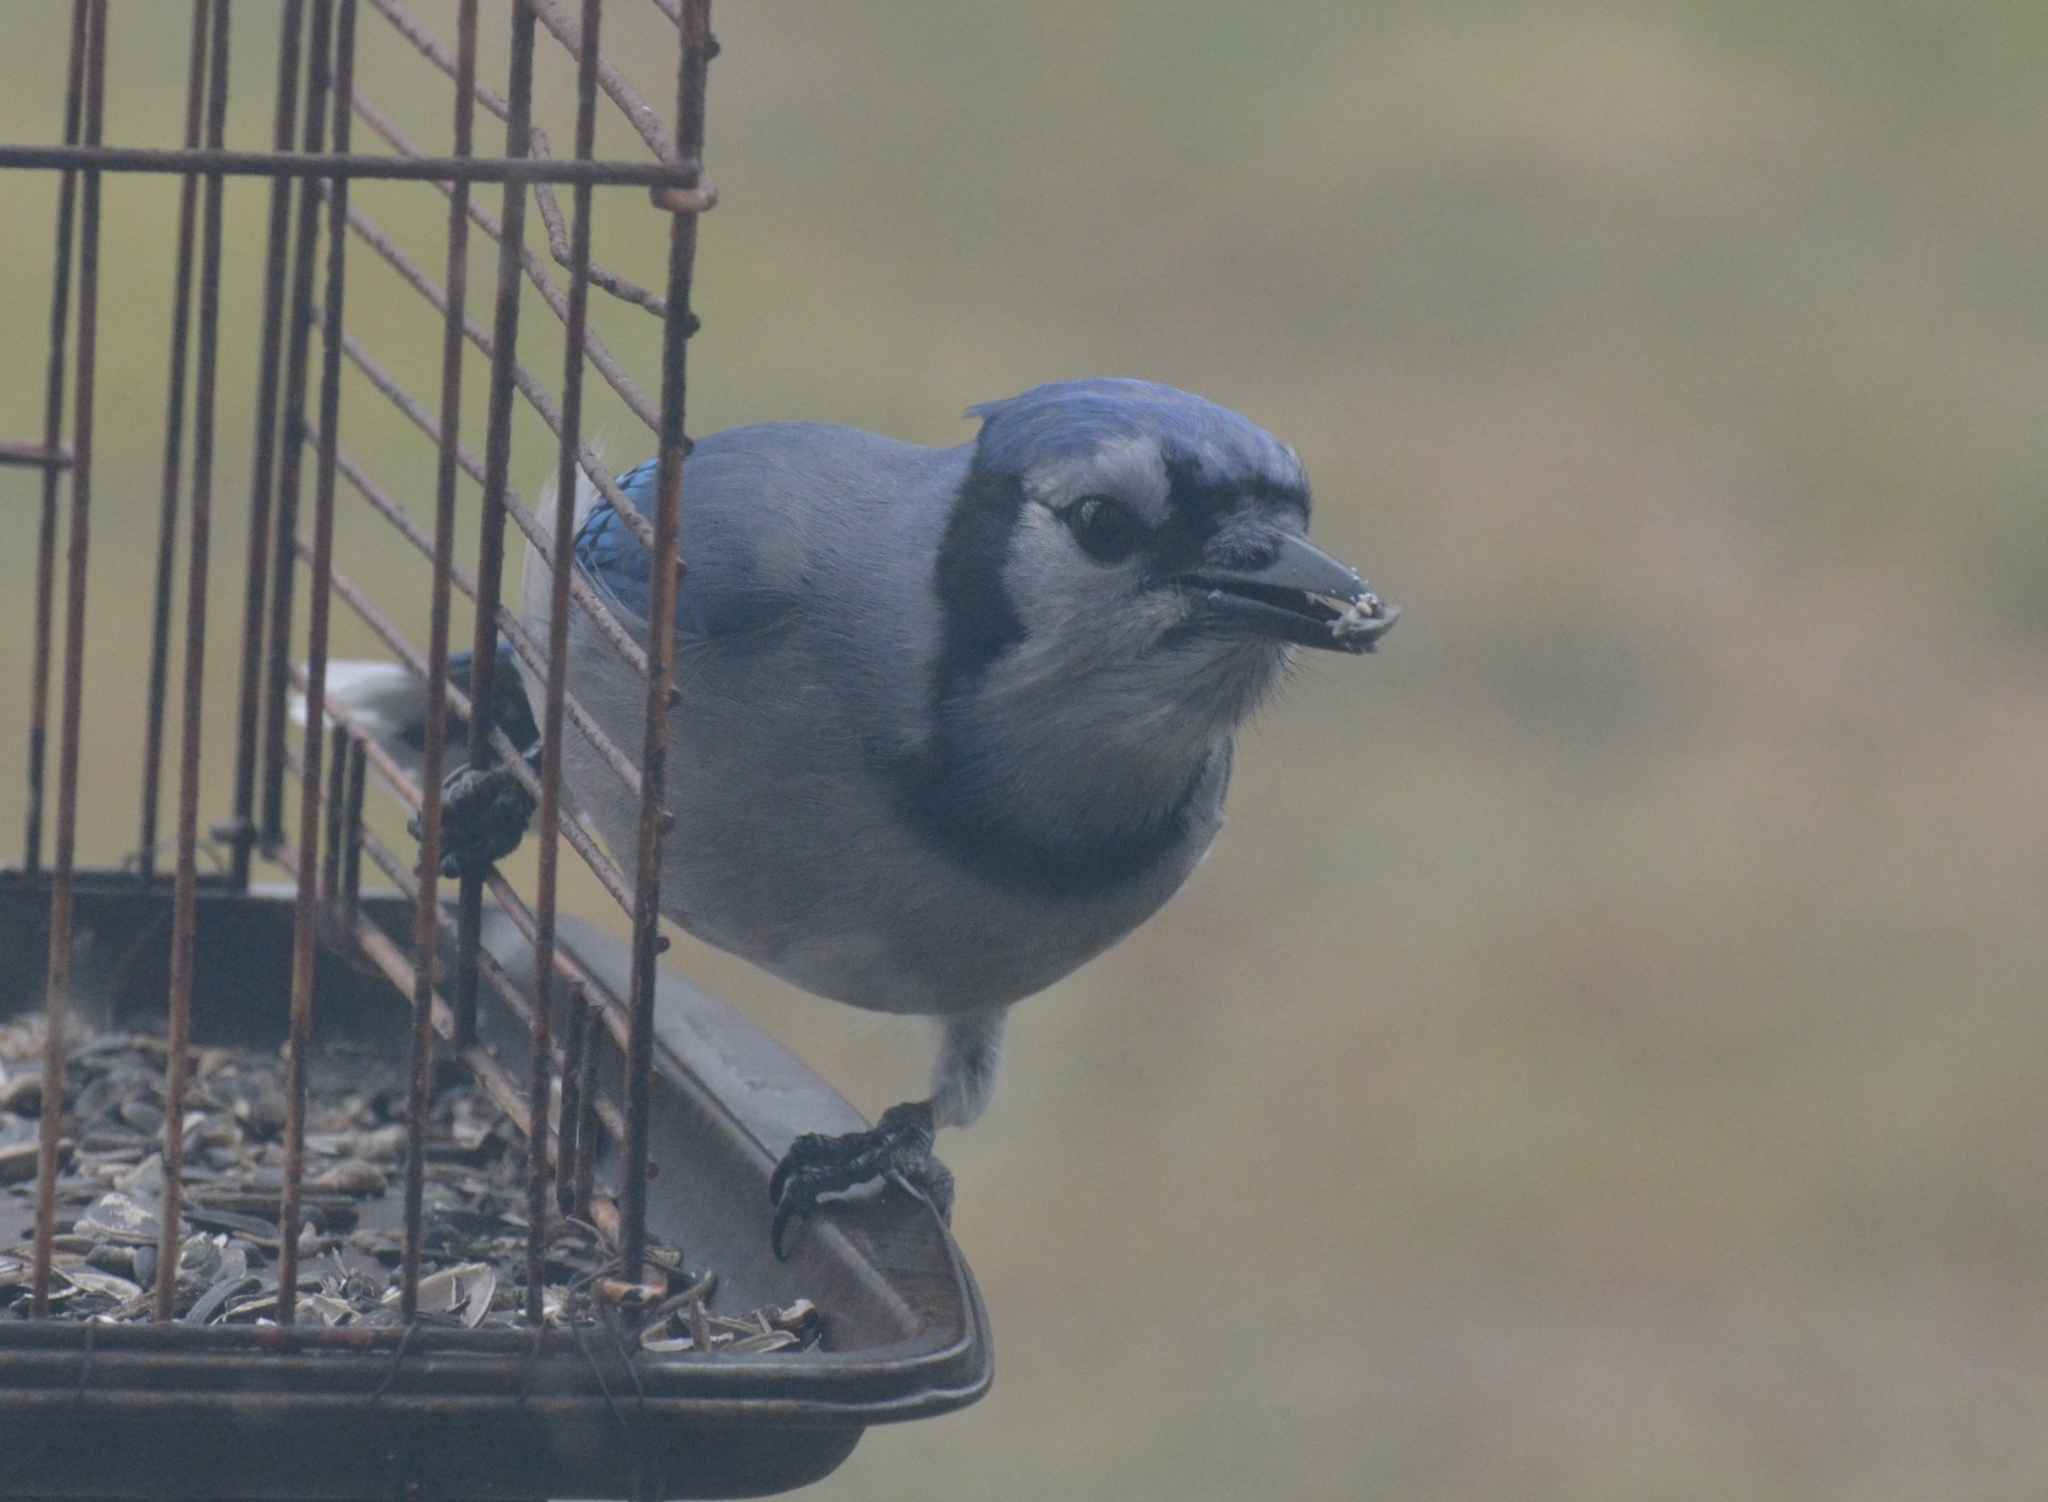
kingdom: Animalia
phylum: Chordata
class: Aves
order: Passeriformes
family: Corvidae
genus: Cyanocitta
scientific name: Cyanocitta cristata
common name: Blue jay
